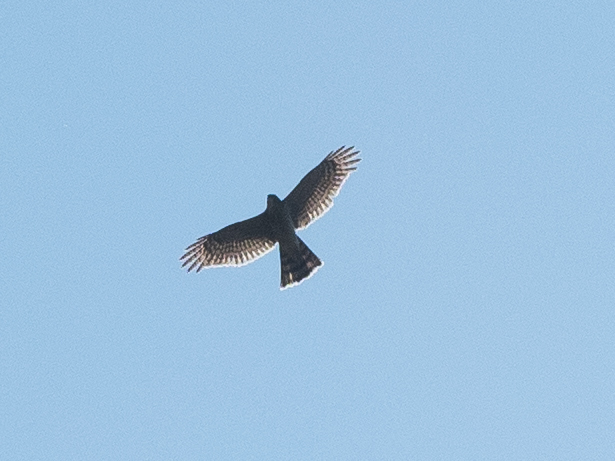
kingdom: Animalia
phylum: Chordata
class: Aves
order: Accipitriformes
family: Accipitridae
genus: Accipiter
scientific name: Accipiter nisus
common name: Eurasian sparrowhawk
